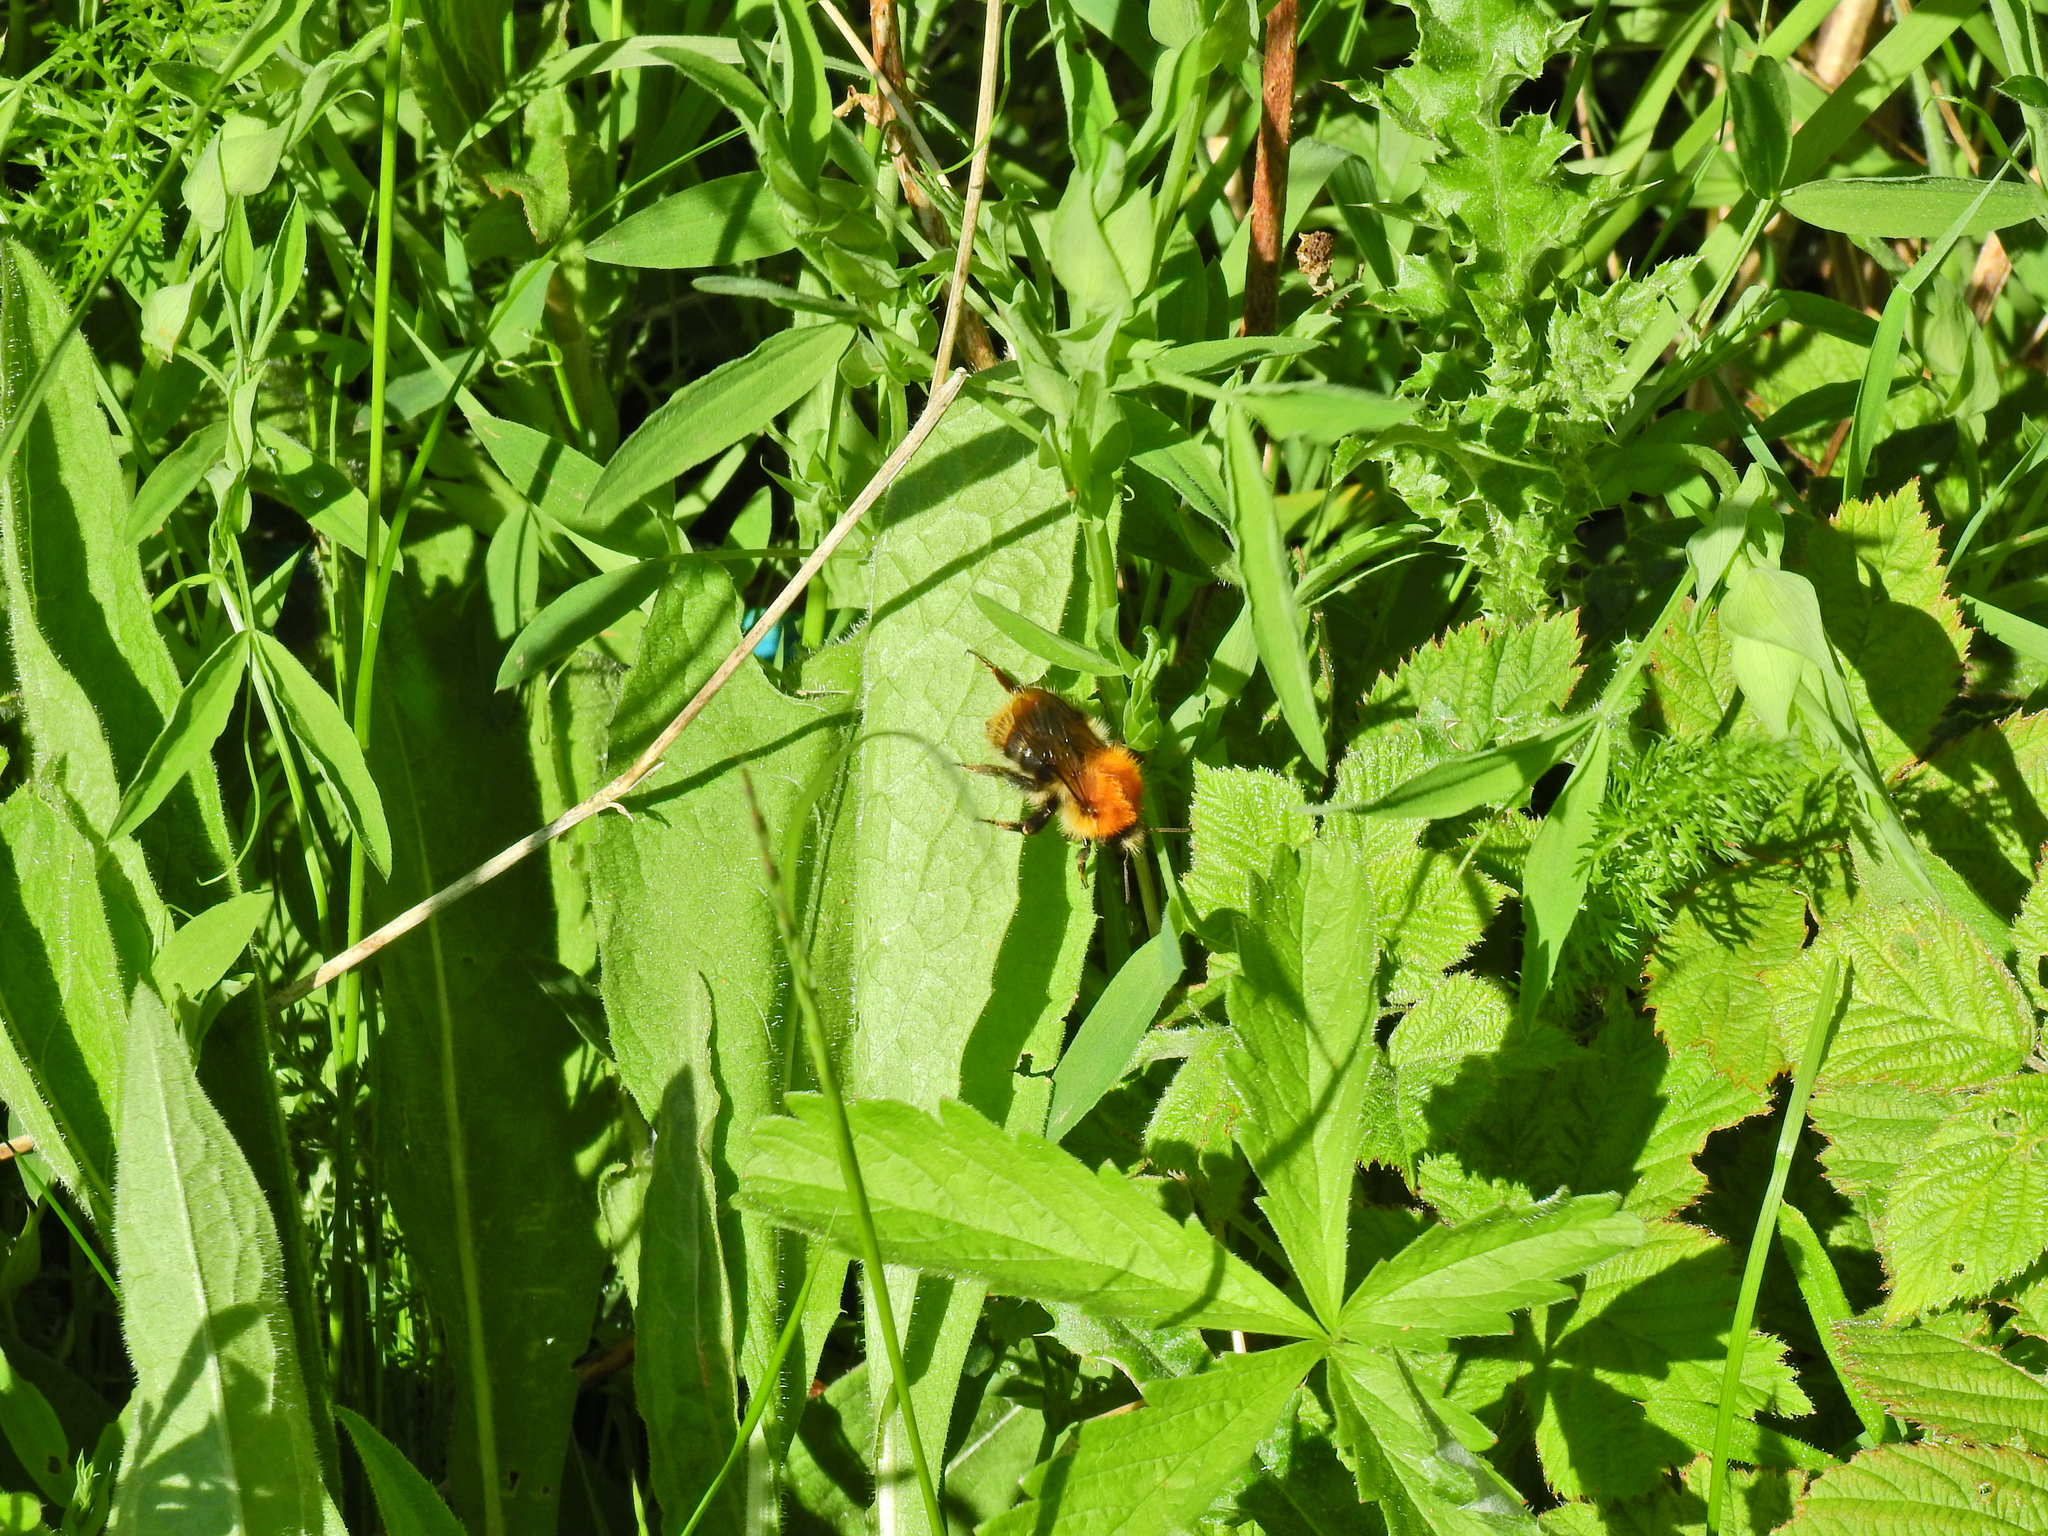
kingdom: Animalia
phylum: Arthropoda
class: Insecta
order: Hymenoptera
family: Apidae
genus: Bombus
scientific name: Bombus pascuorum
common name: Common carder bee
